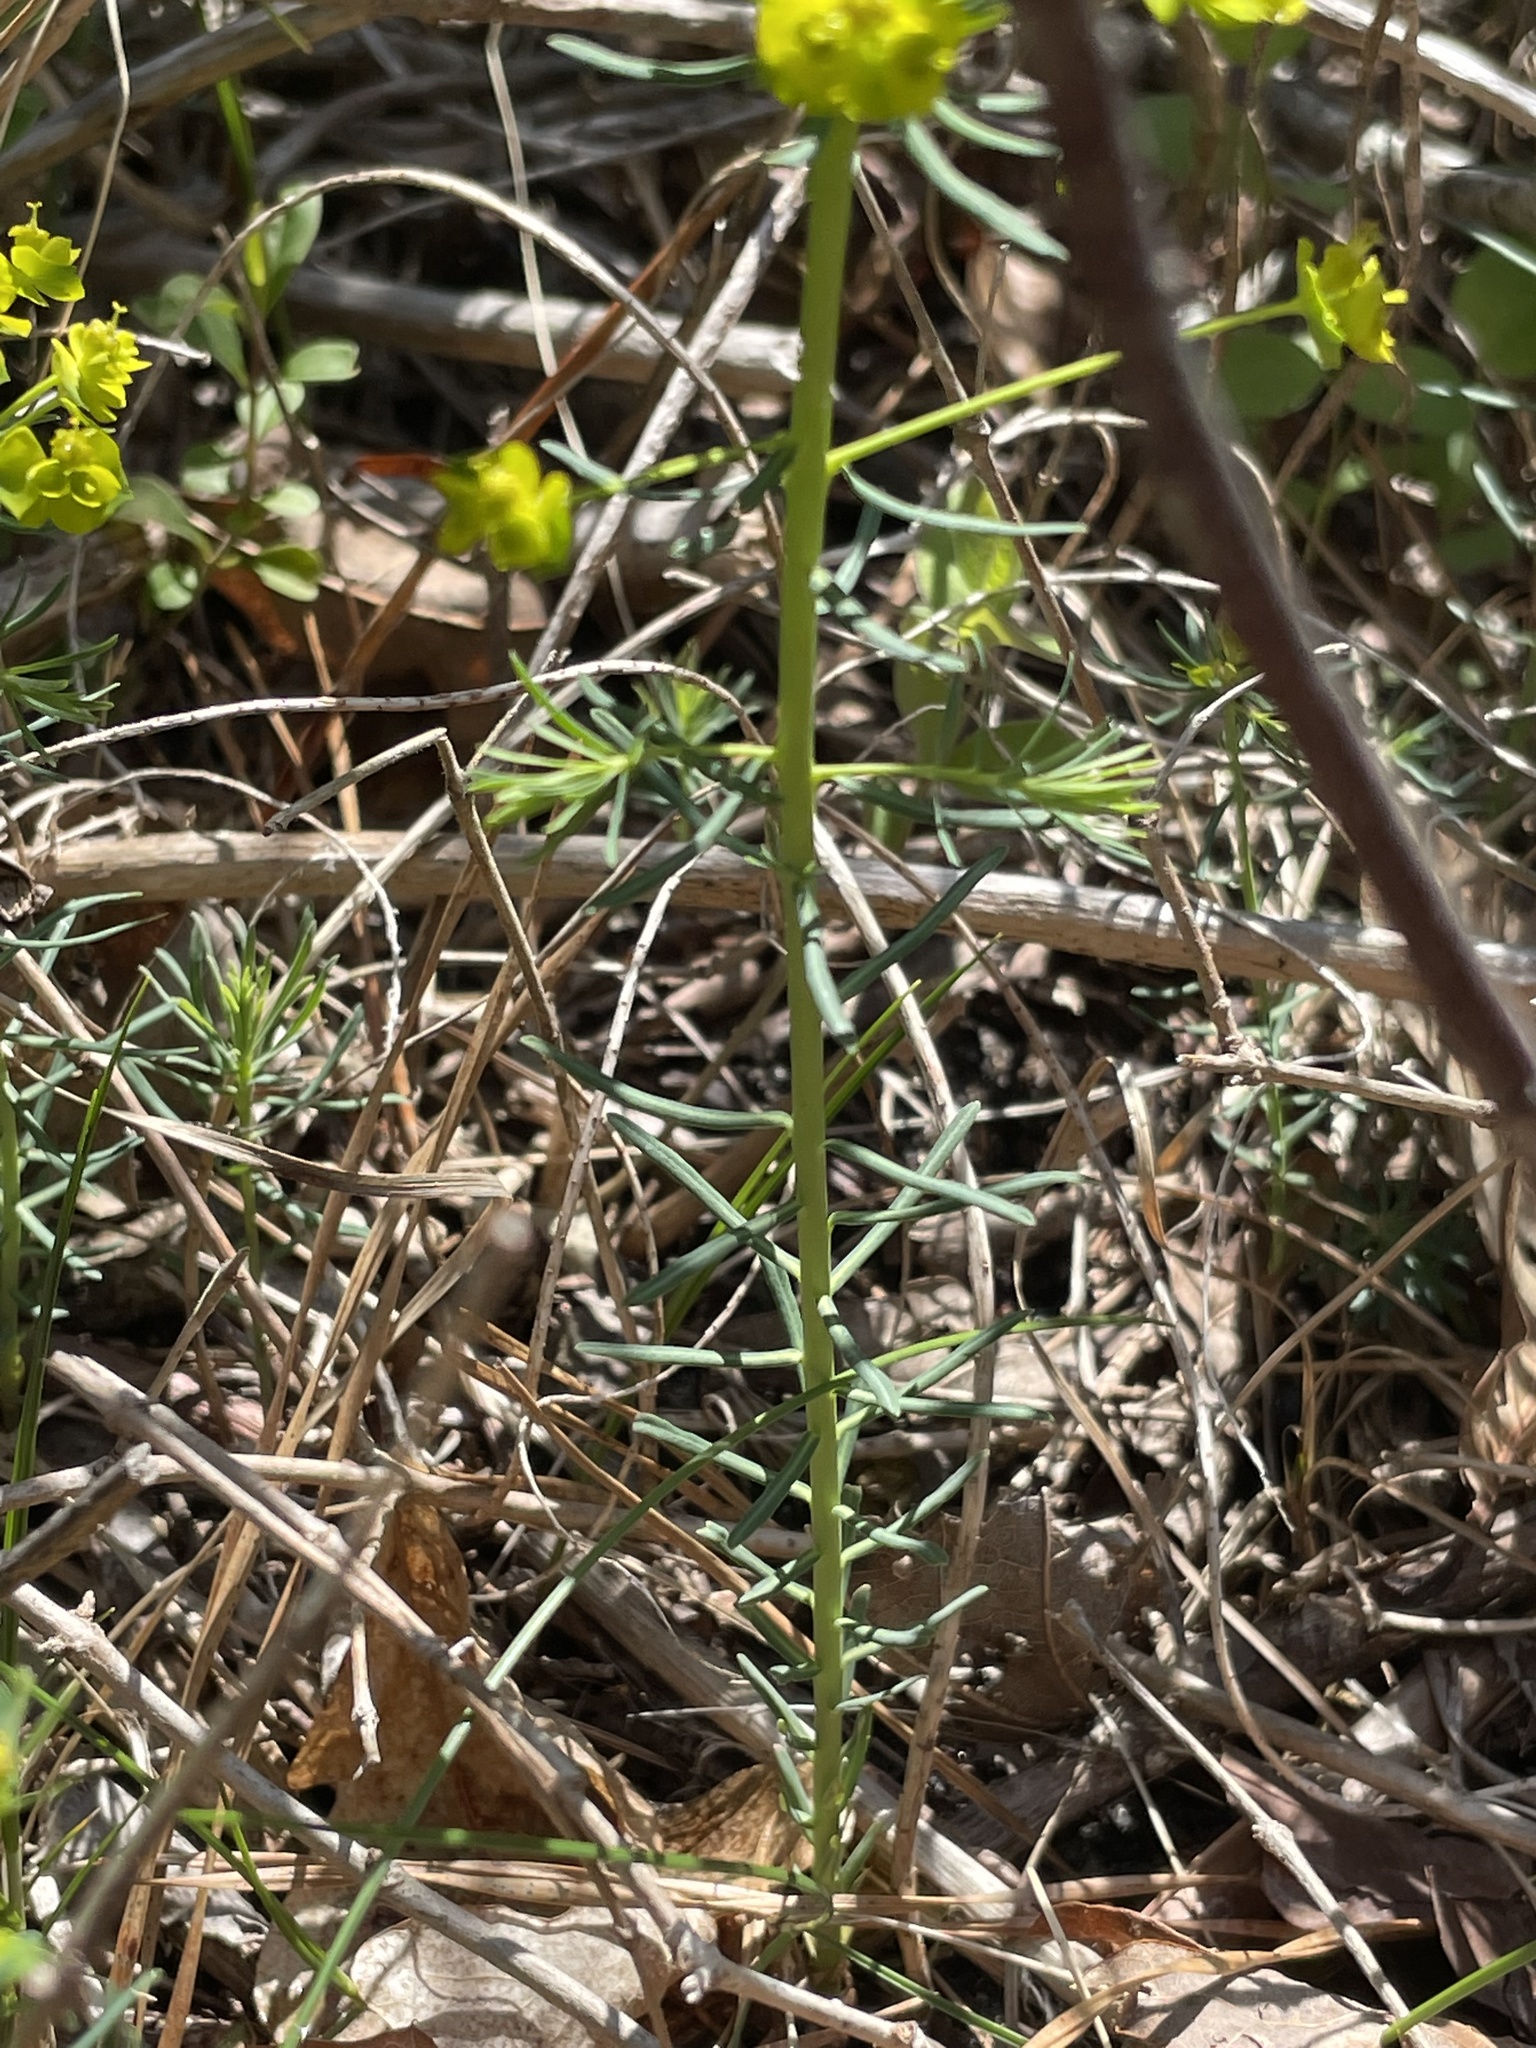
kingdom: Plantae
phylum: Tracheophyta
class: Magnoliopsida
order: Malpighiales
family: Euphorbiaceae
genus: Euphorbia
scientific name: Euphorbia cyparissias
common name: Cypress spurge
